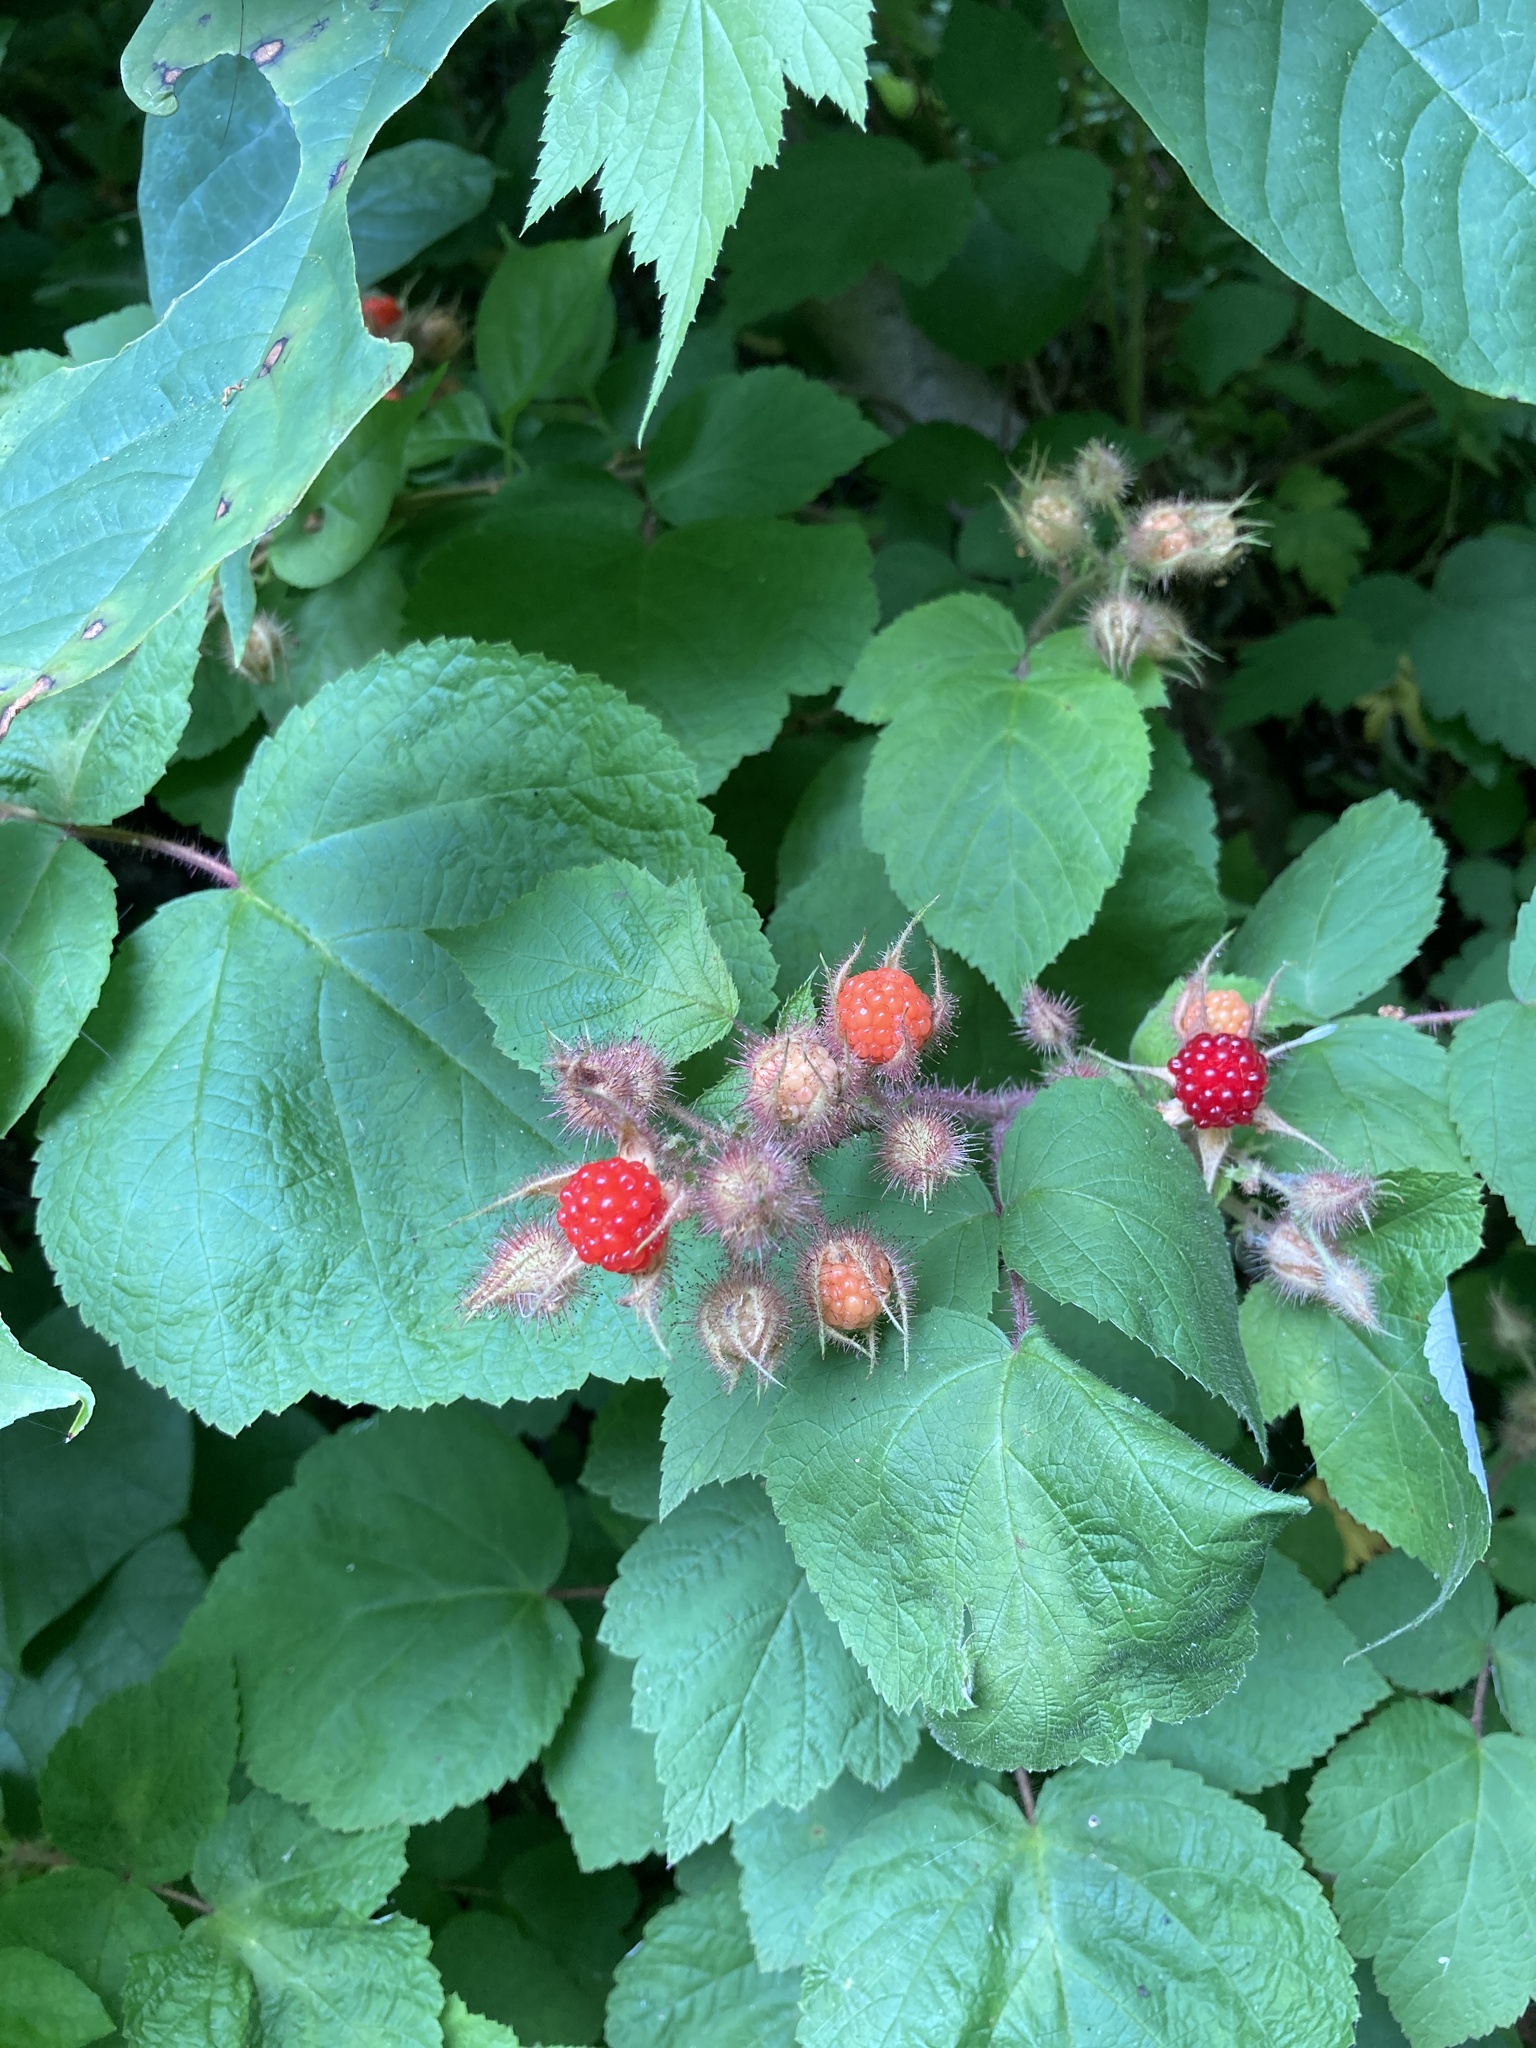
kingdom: Plantae
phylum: Tracheophyta
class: Magnoliopsida
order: Rosales
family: Rosaceae
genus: Rubus
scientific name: Rubus phoenicolasius
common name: Japanese wineberry
